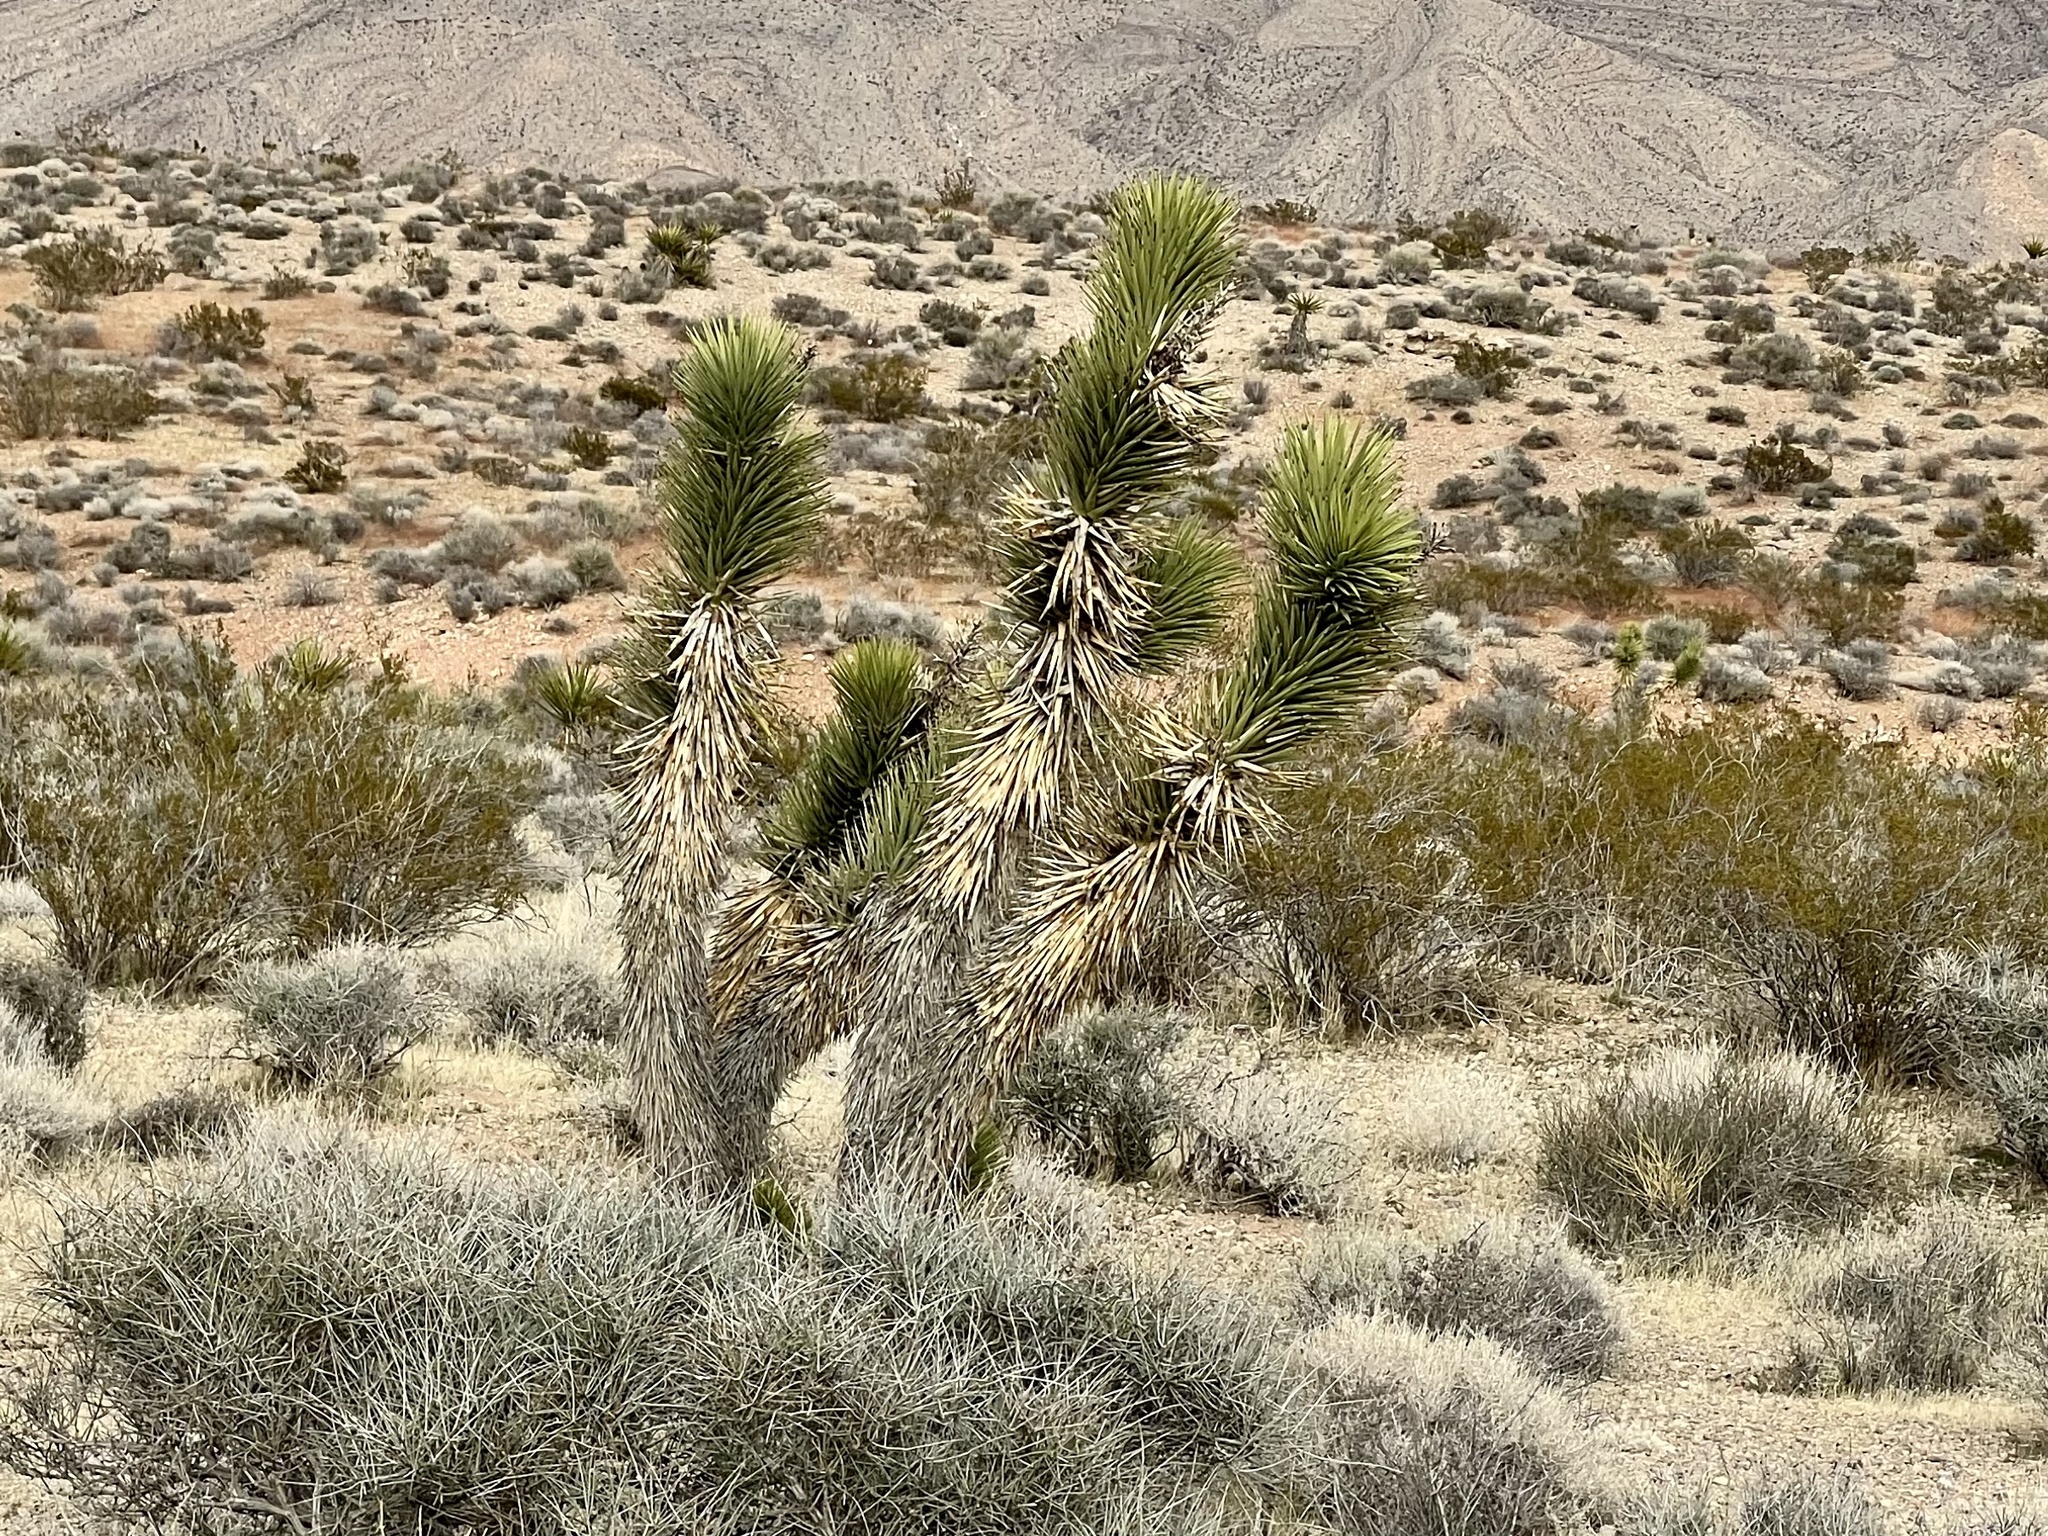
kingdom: Plantae
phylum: Tracheophyta
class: Liliopsida
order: Asparagales
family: Asparagaceae
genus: Yucca
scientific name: Yucca brevifolia
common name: Joshua tree
